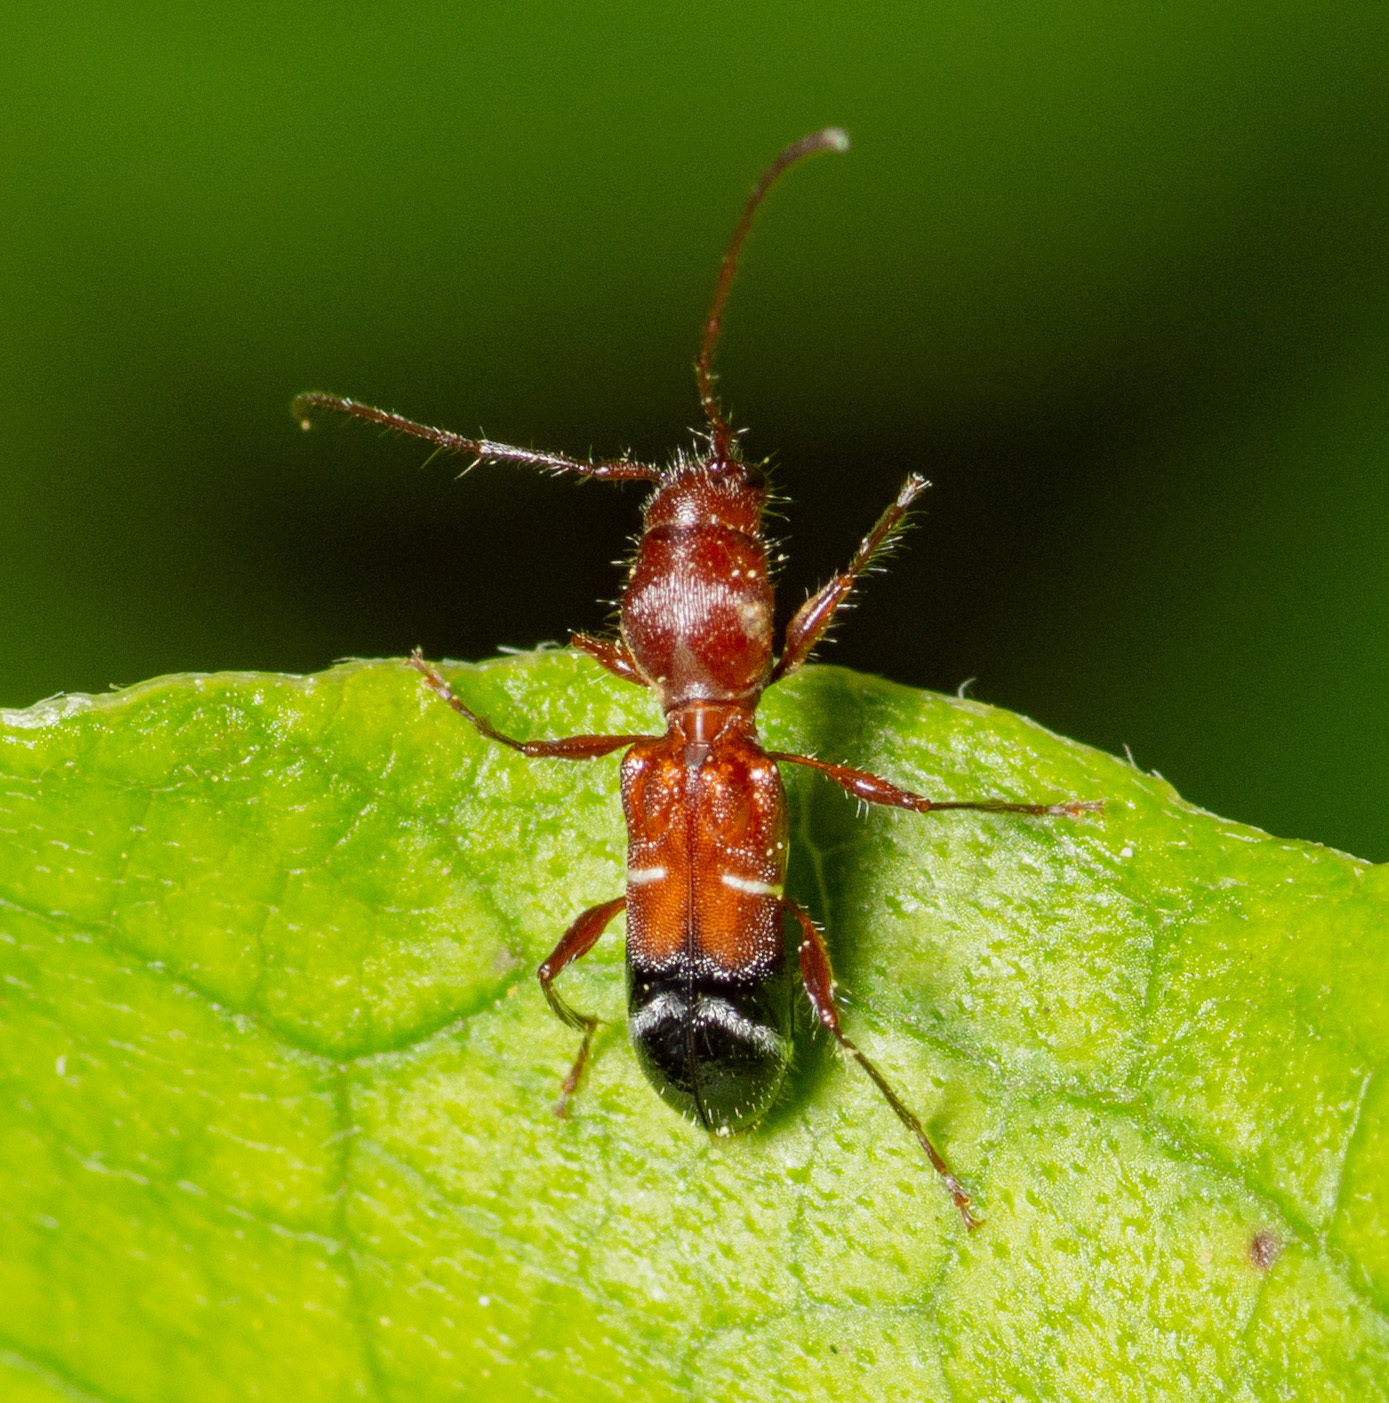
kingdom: Animalia
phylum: Arthropoda
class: Insecta
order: Coleoptera
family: Cerambycidae
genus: Euderces
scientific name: Euderces pini
